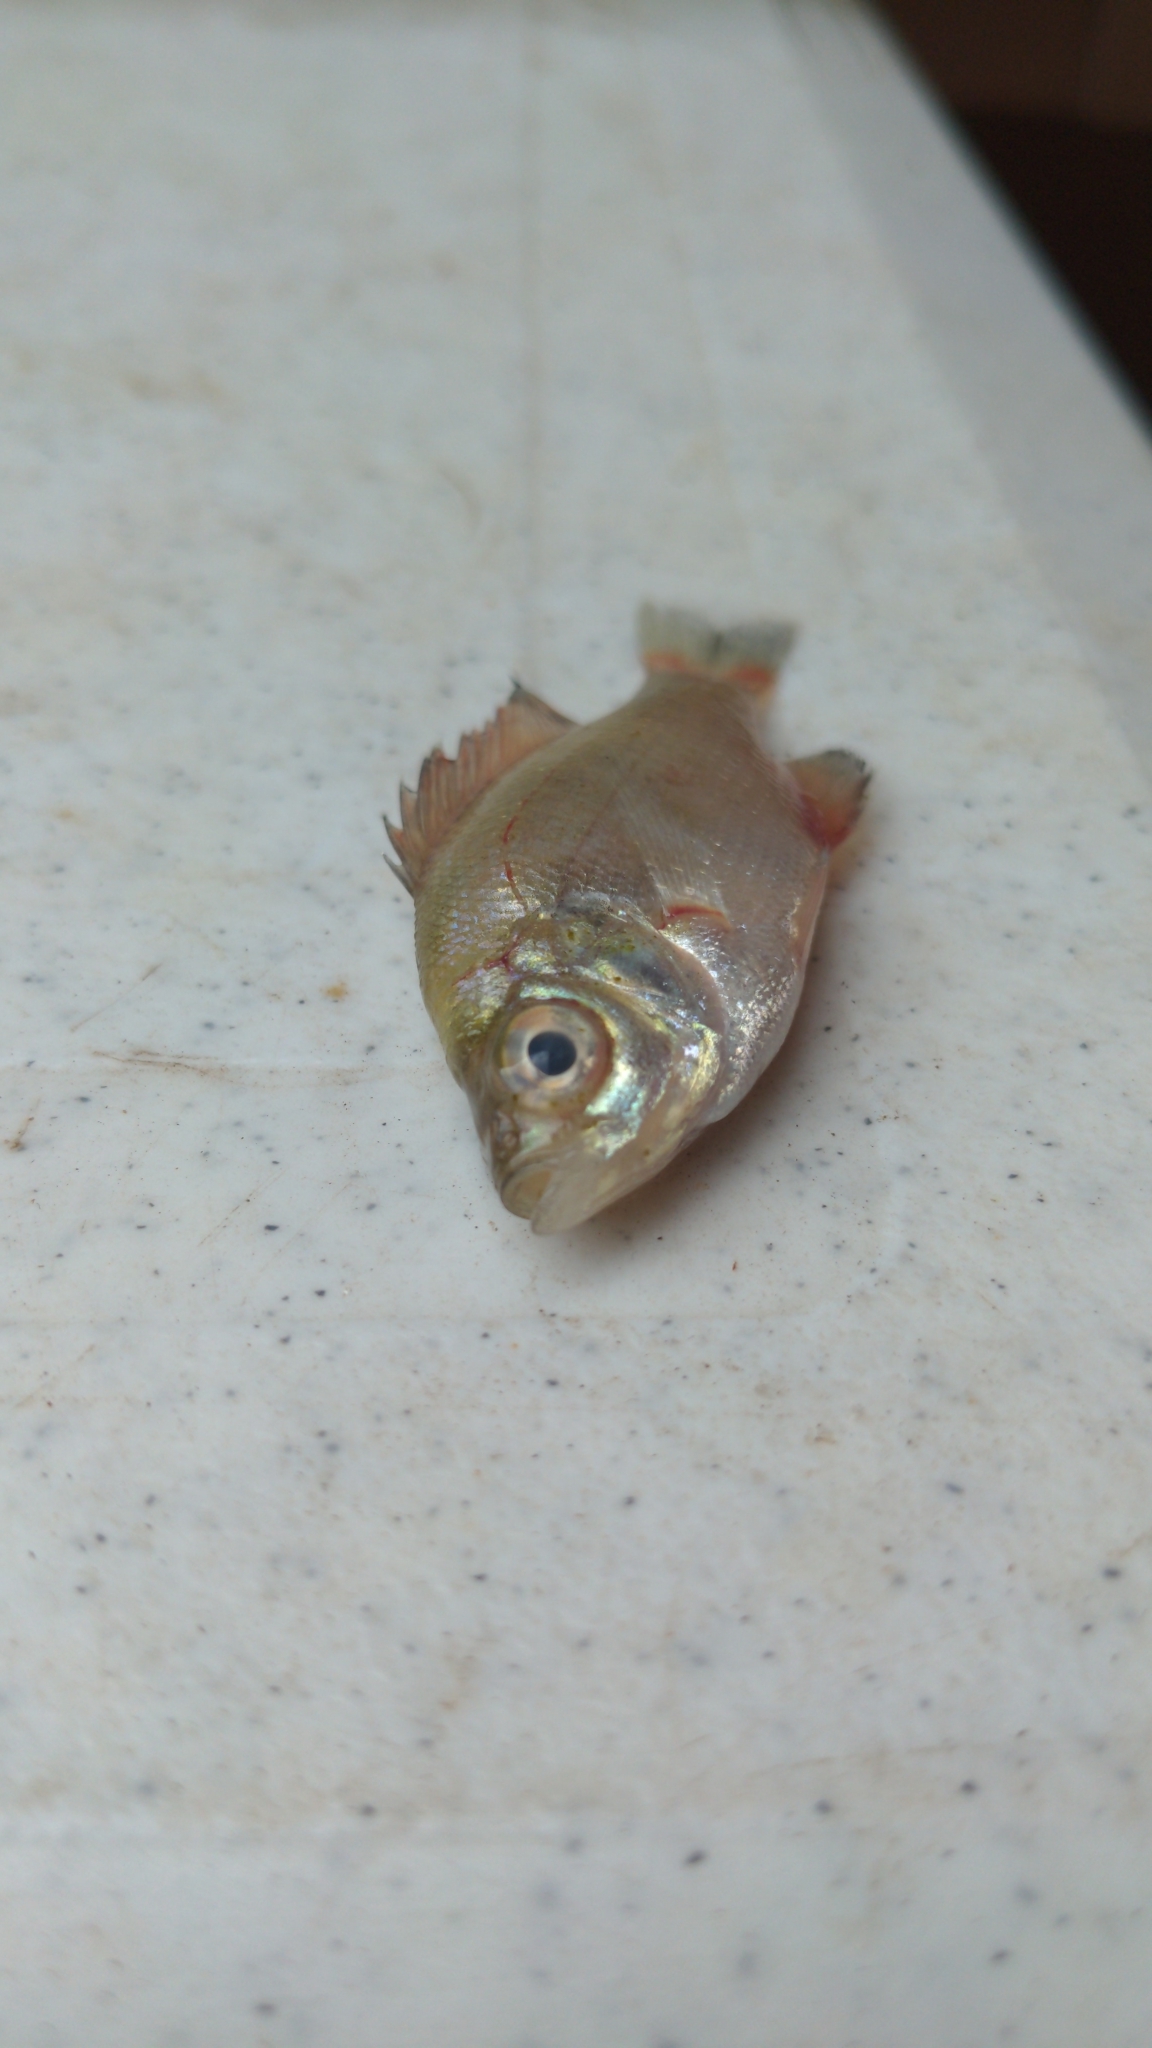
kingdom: Animalia
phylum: Chordata
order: Perciformes
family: Centrarchidae
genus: Centrarchus
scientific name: Centrarchus macropterus
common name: Flier
